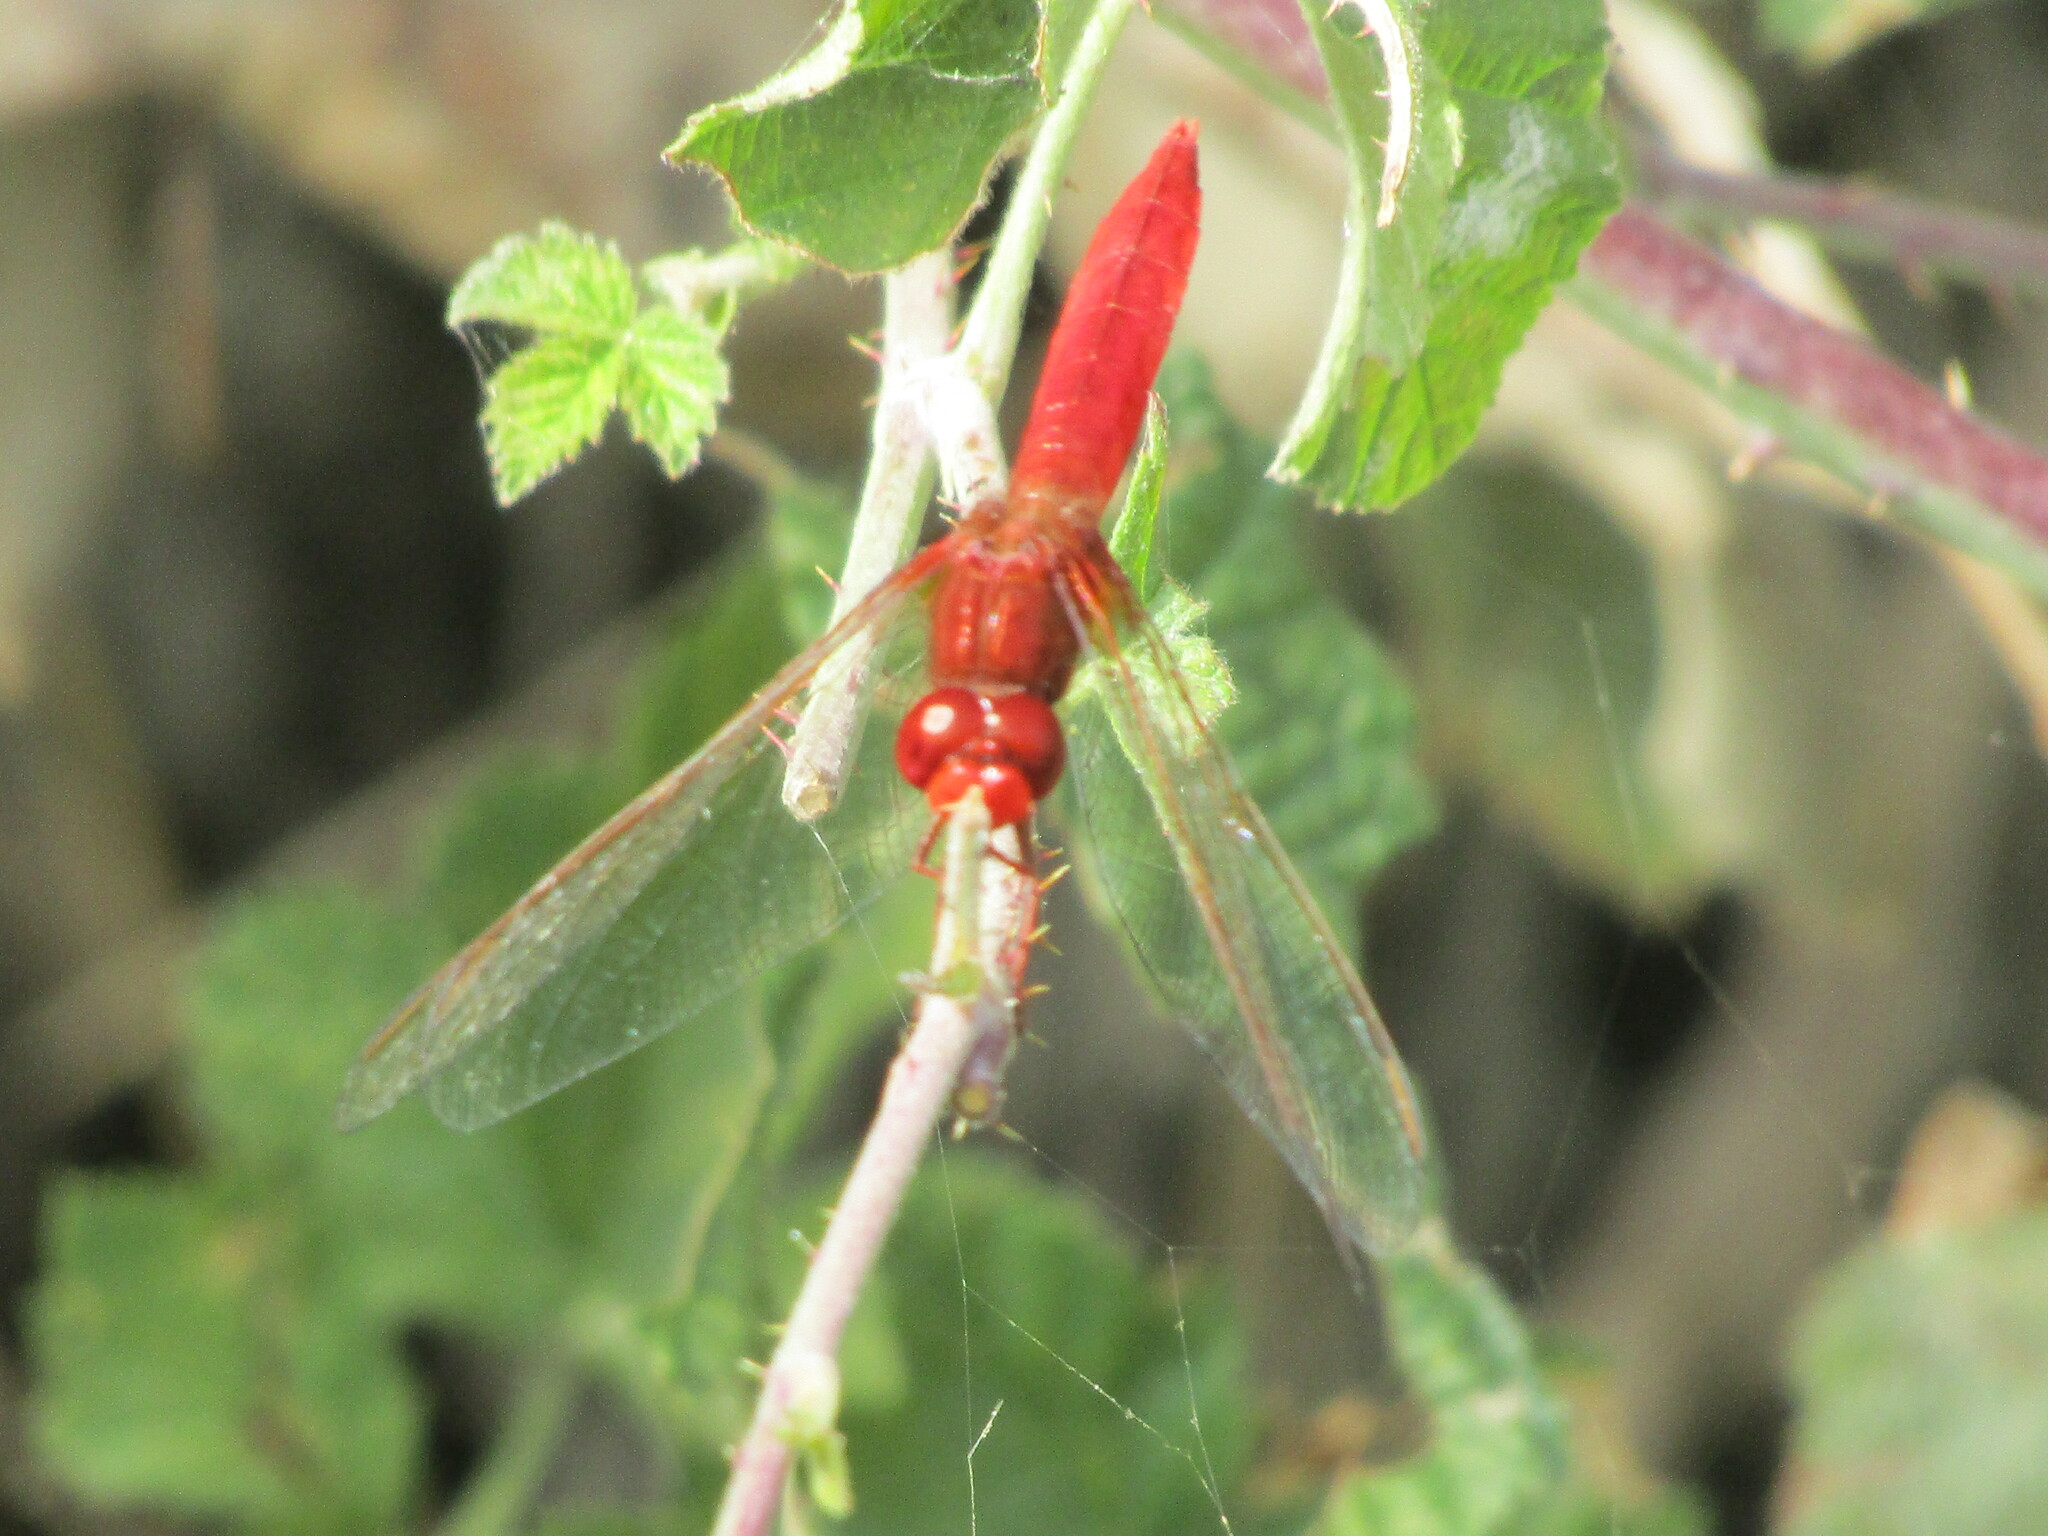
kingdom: Animalia
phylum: Arthropoda
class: Insecta
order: Odonata
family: Libellulidae
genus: Crocothemis
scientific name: Crocothemis erythraea
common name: Scarlet dragonfly
